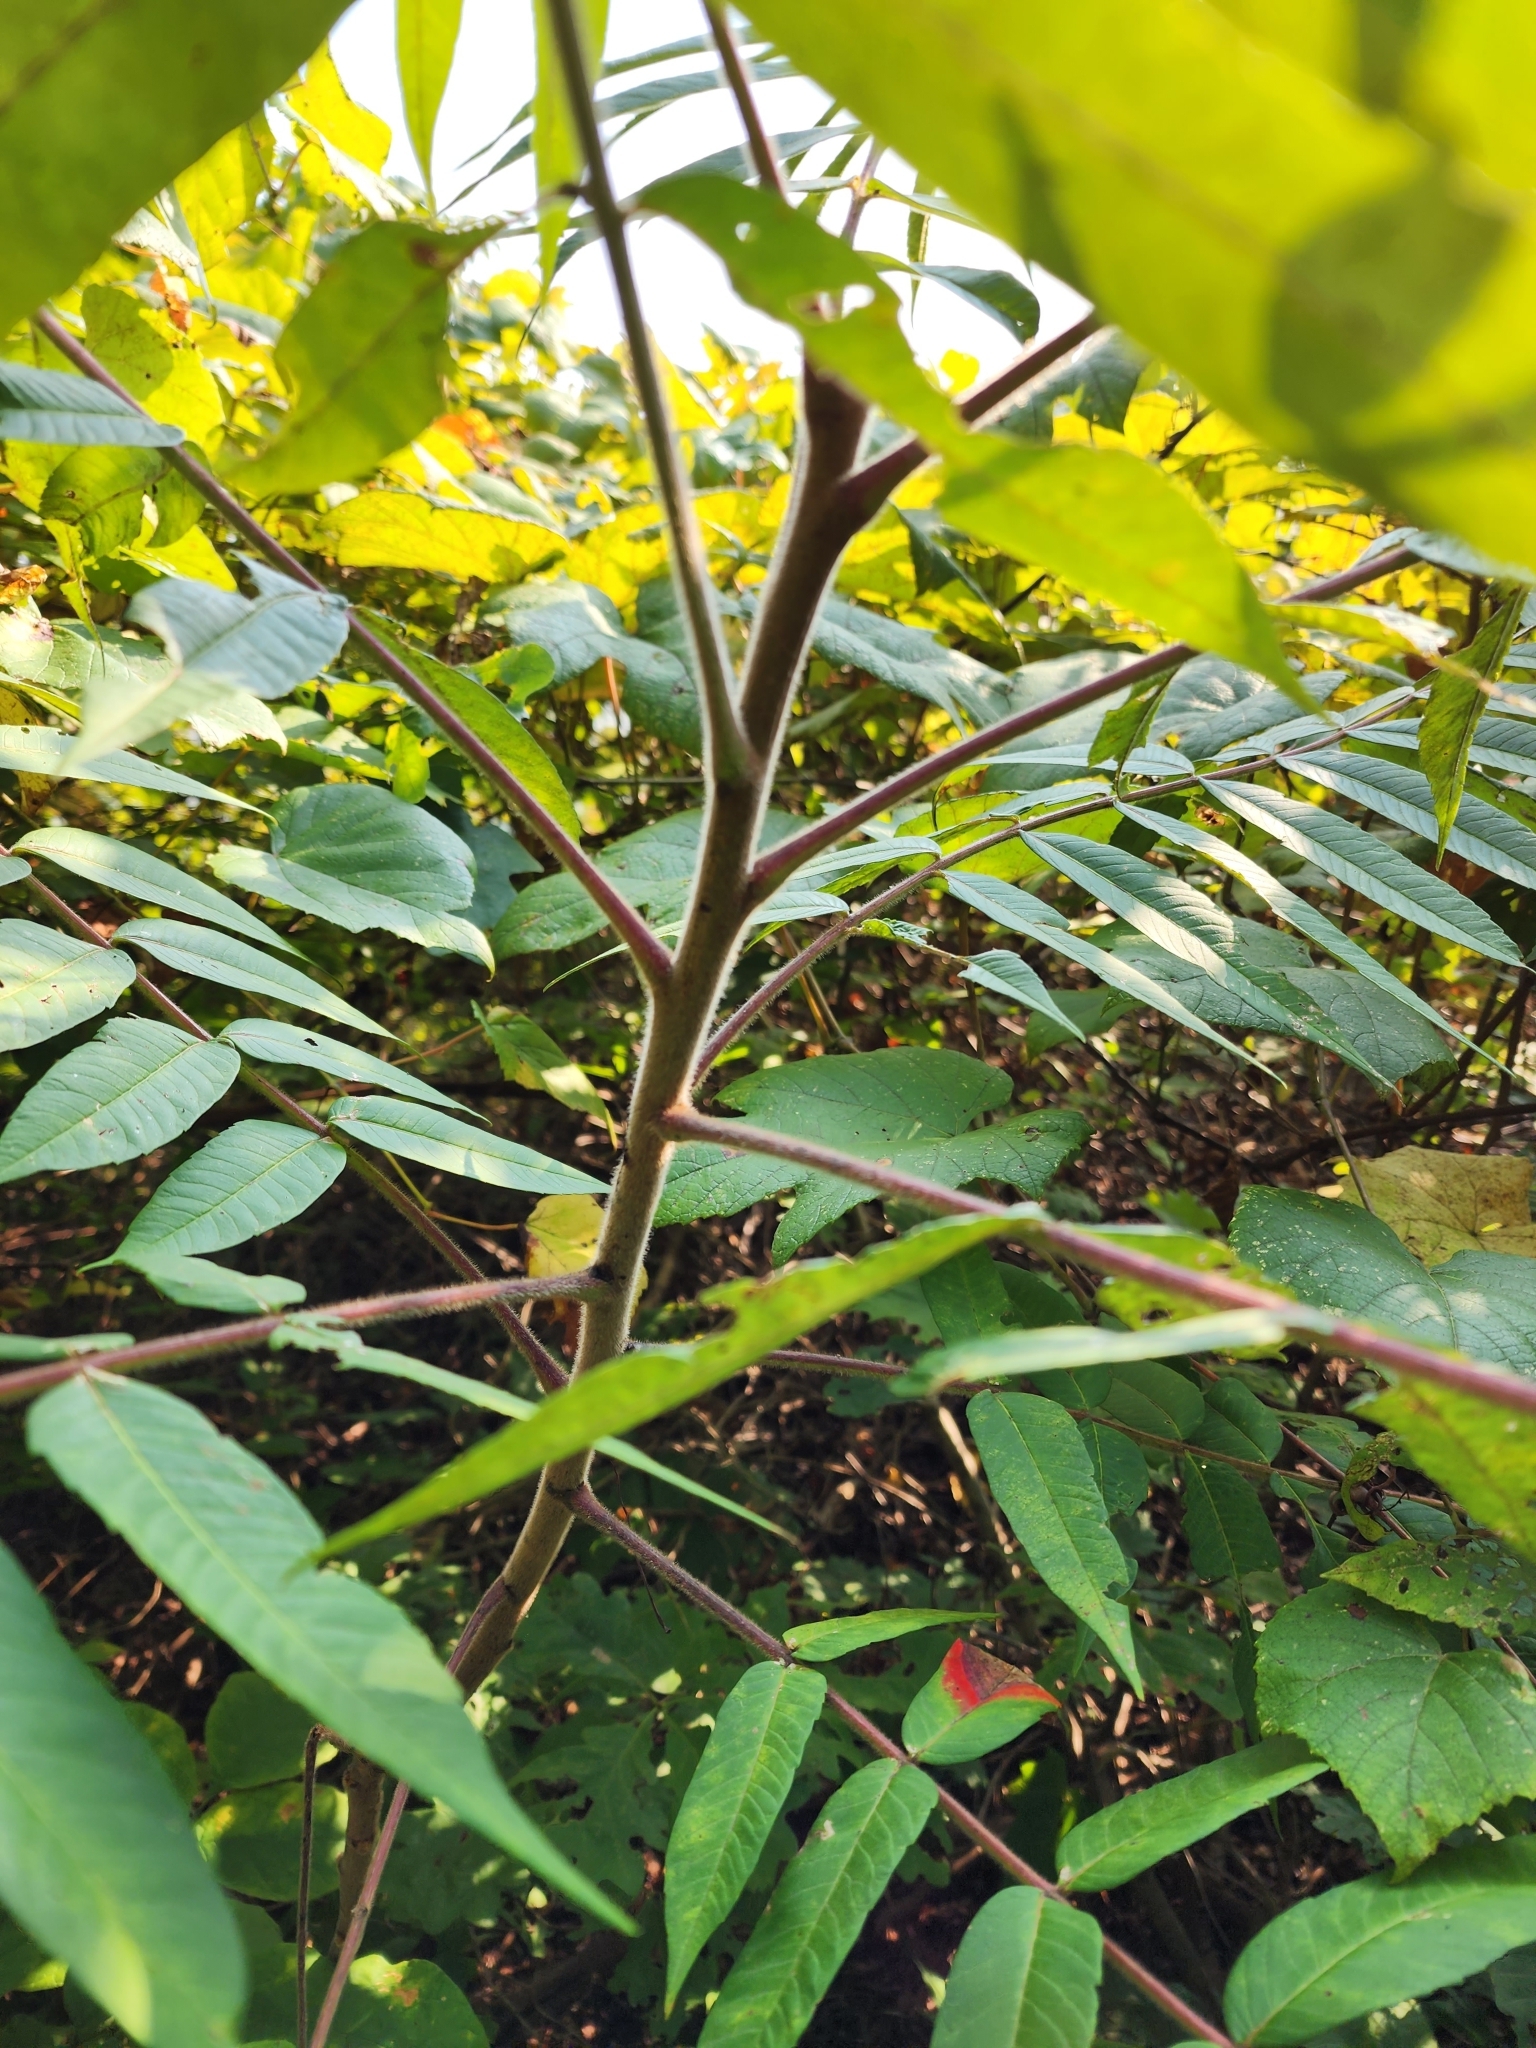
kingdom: Plantae
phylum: Tracheophyta
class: Magnoliopsida
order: Sapindales
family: Anacardiaceae
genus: Rhus
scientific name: Rhus typhina
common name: Staghorn sumac
